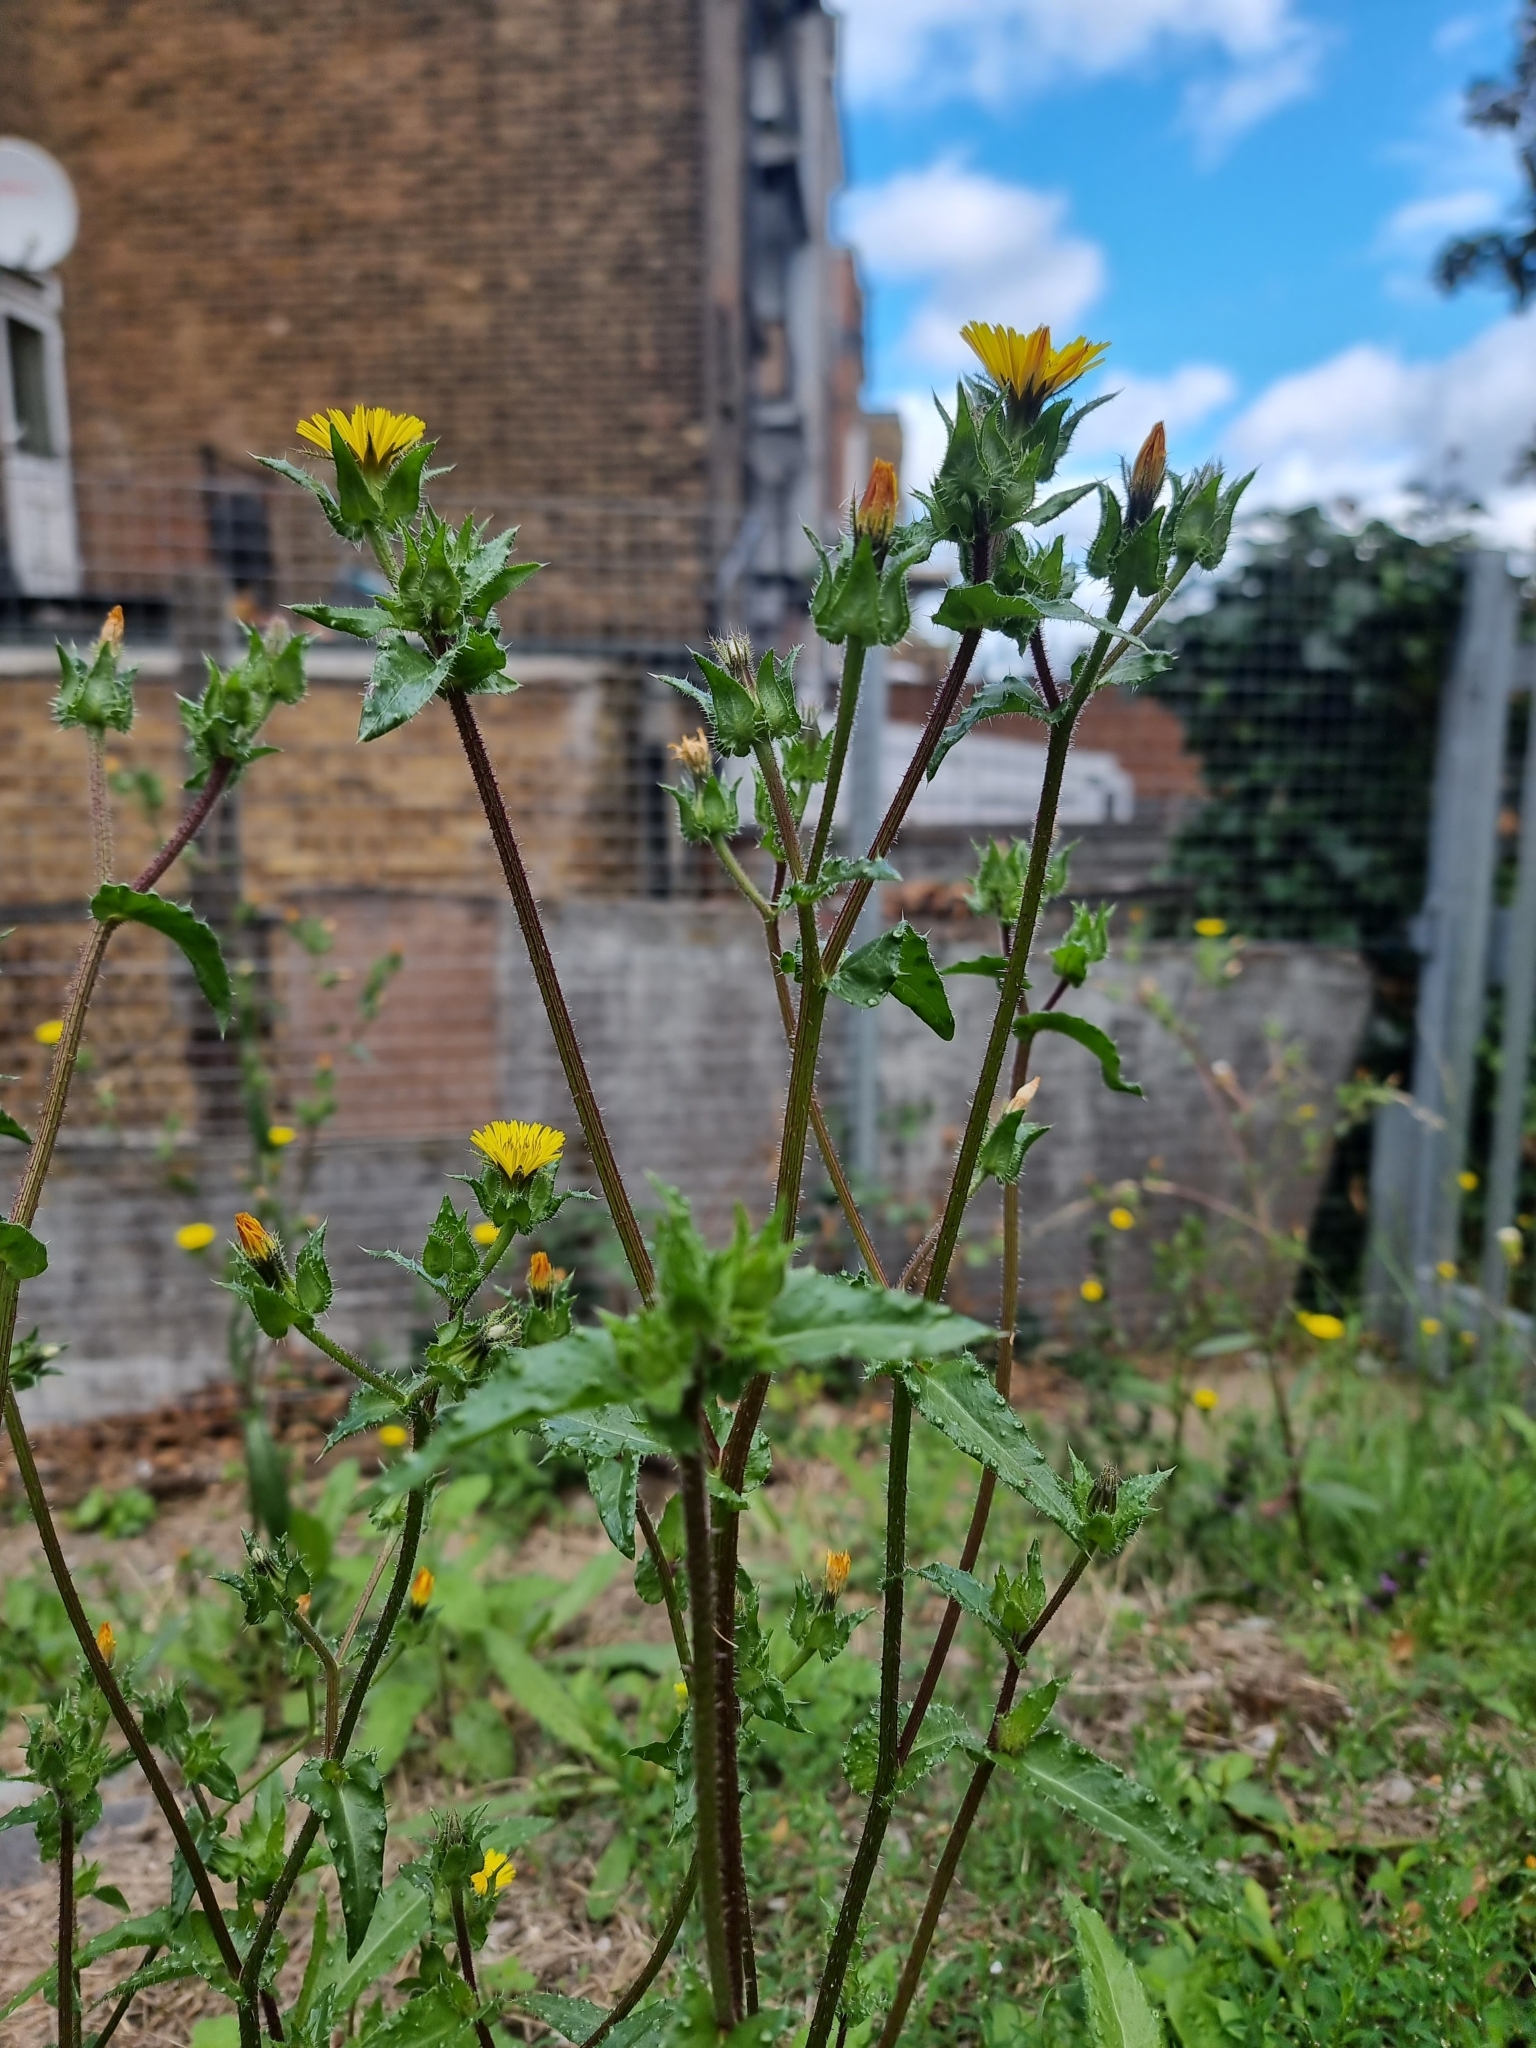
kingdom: Plantae
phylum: Tracheophyta
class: Magnoliopsida
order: Asterales
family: Asteraceae
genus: Helminthotheca
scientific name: Helminthotheca echioides
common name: Ox-tongue
